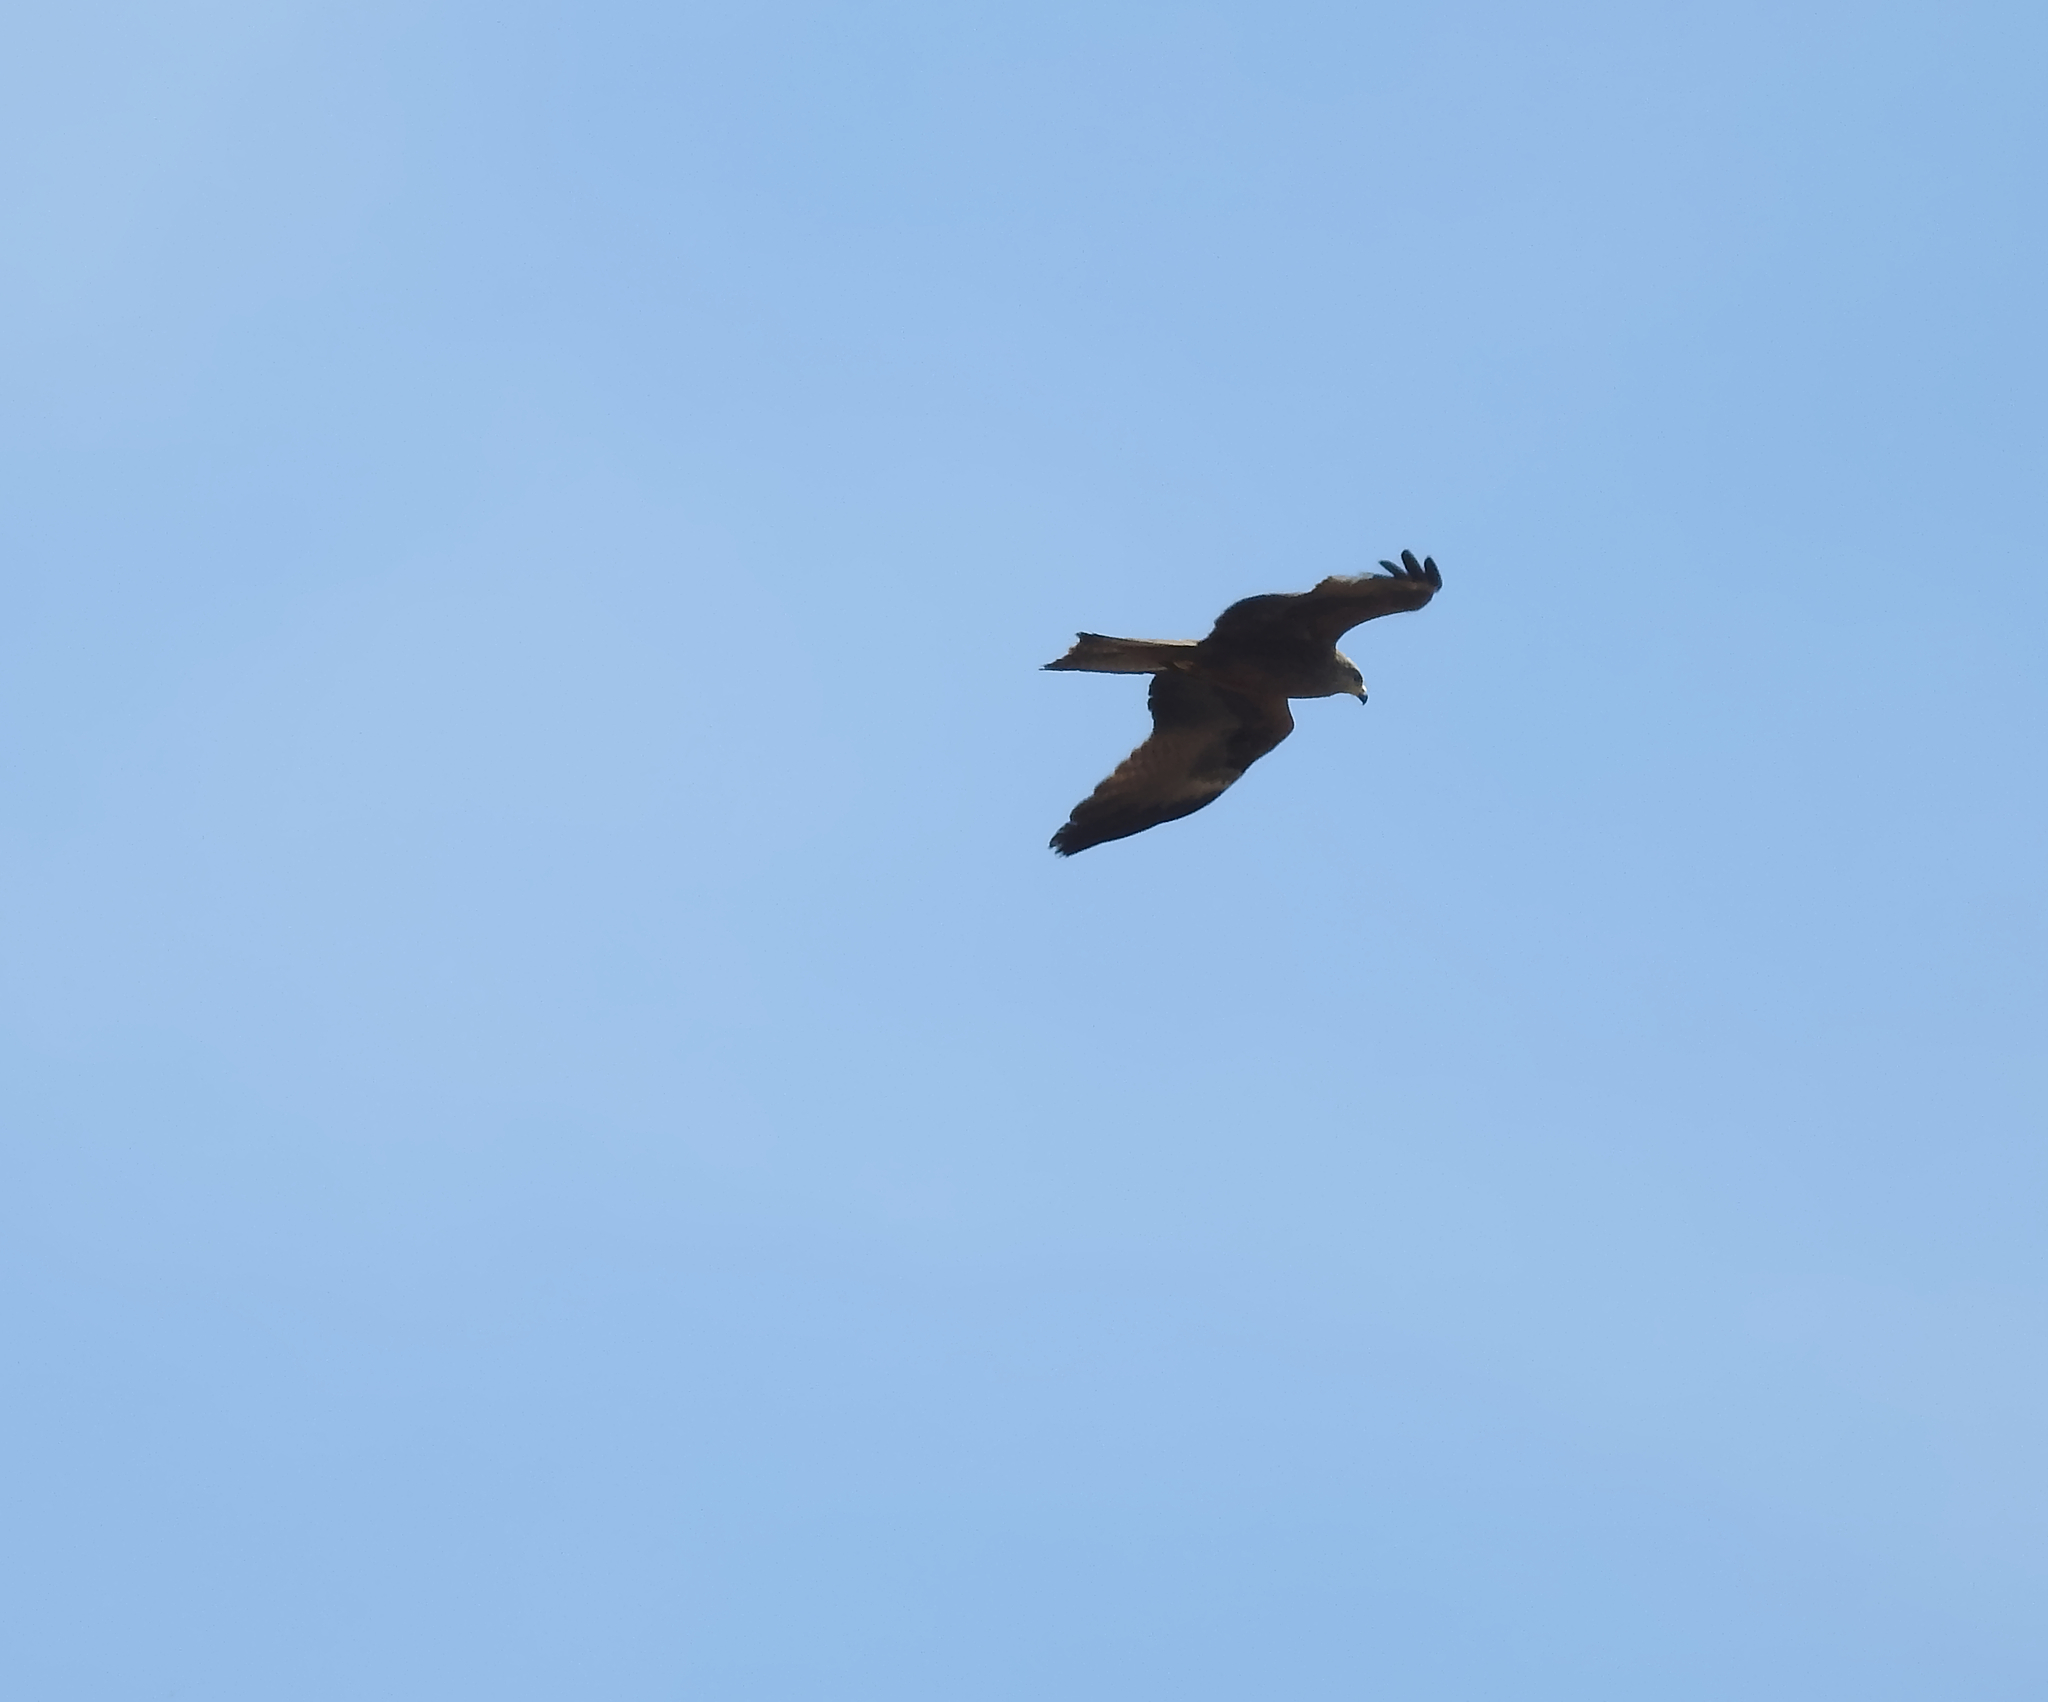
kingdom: Animalia
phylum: Chordata
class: Aves
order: Accipitriformes
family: Accipitridae
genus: Milvus
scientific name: Milvus migrans
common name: Black kite
